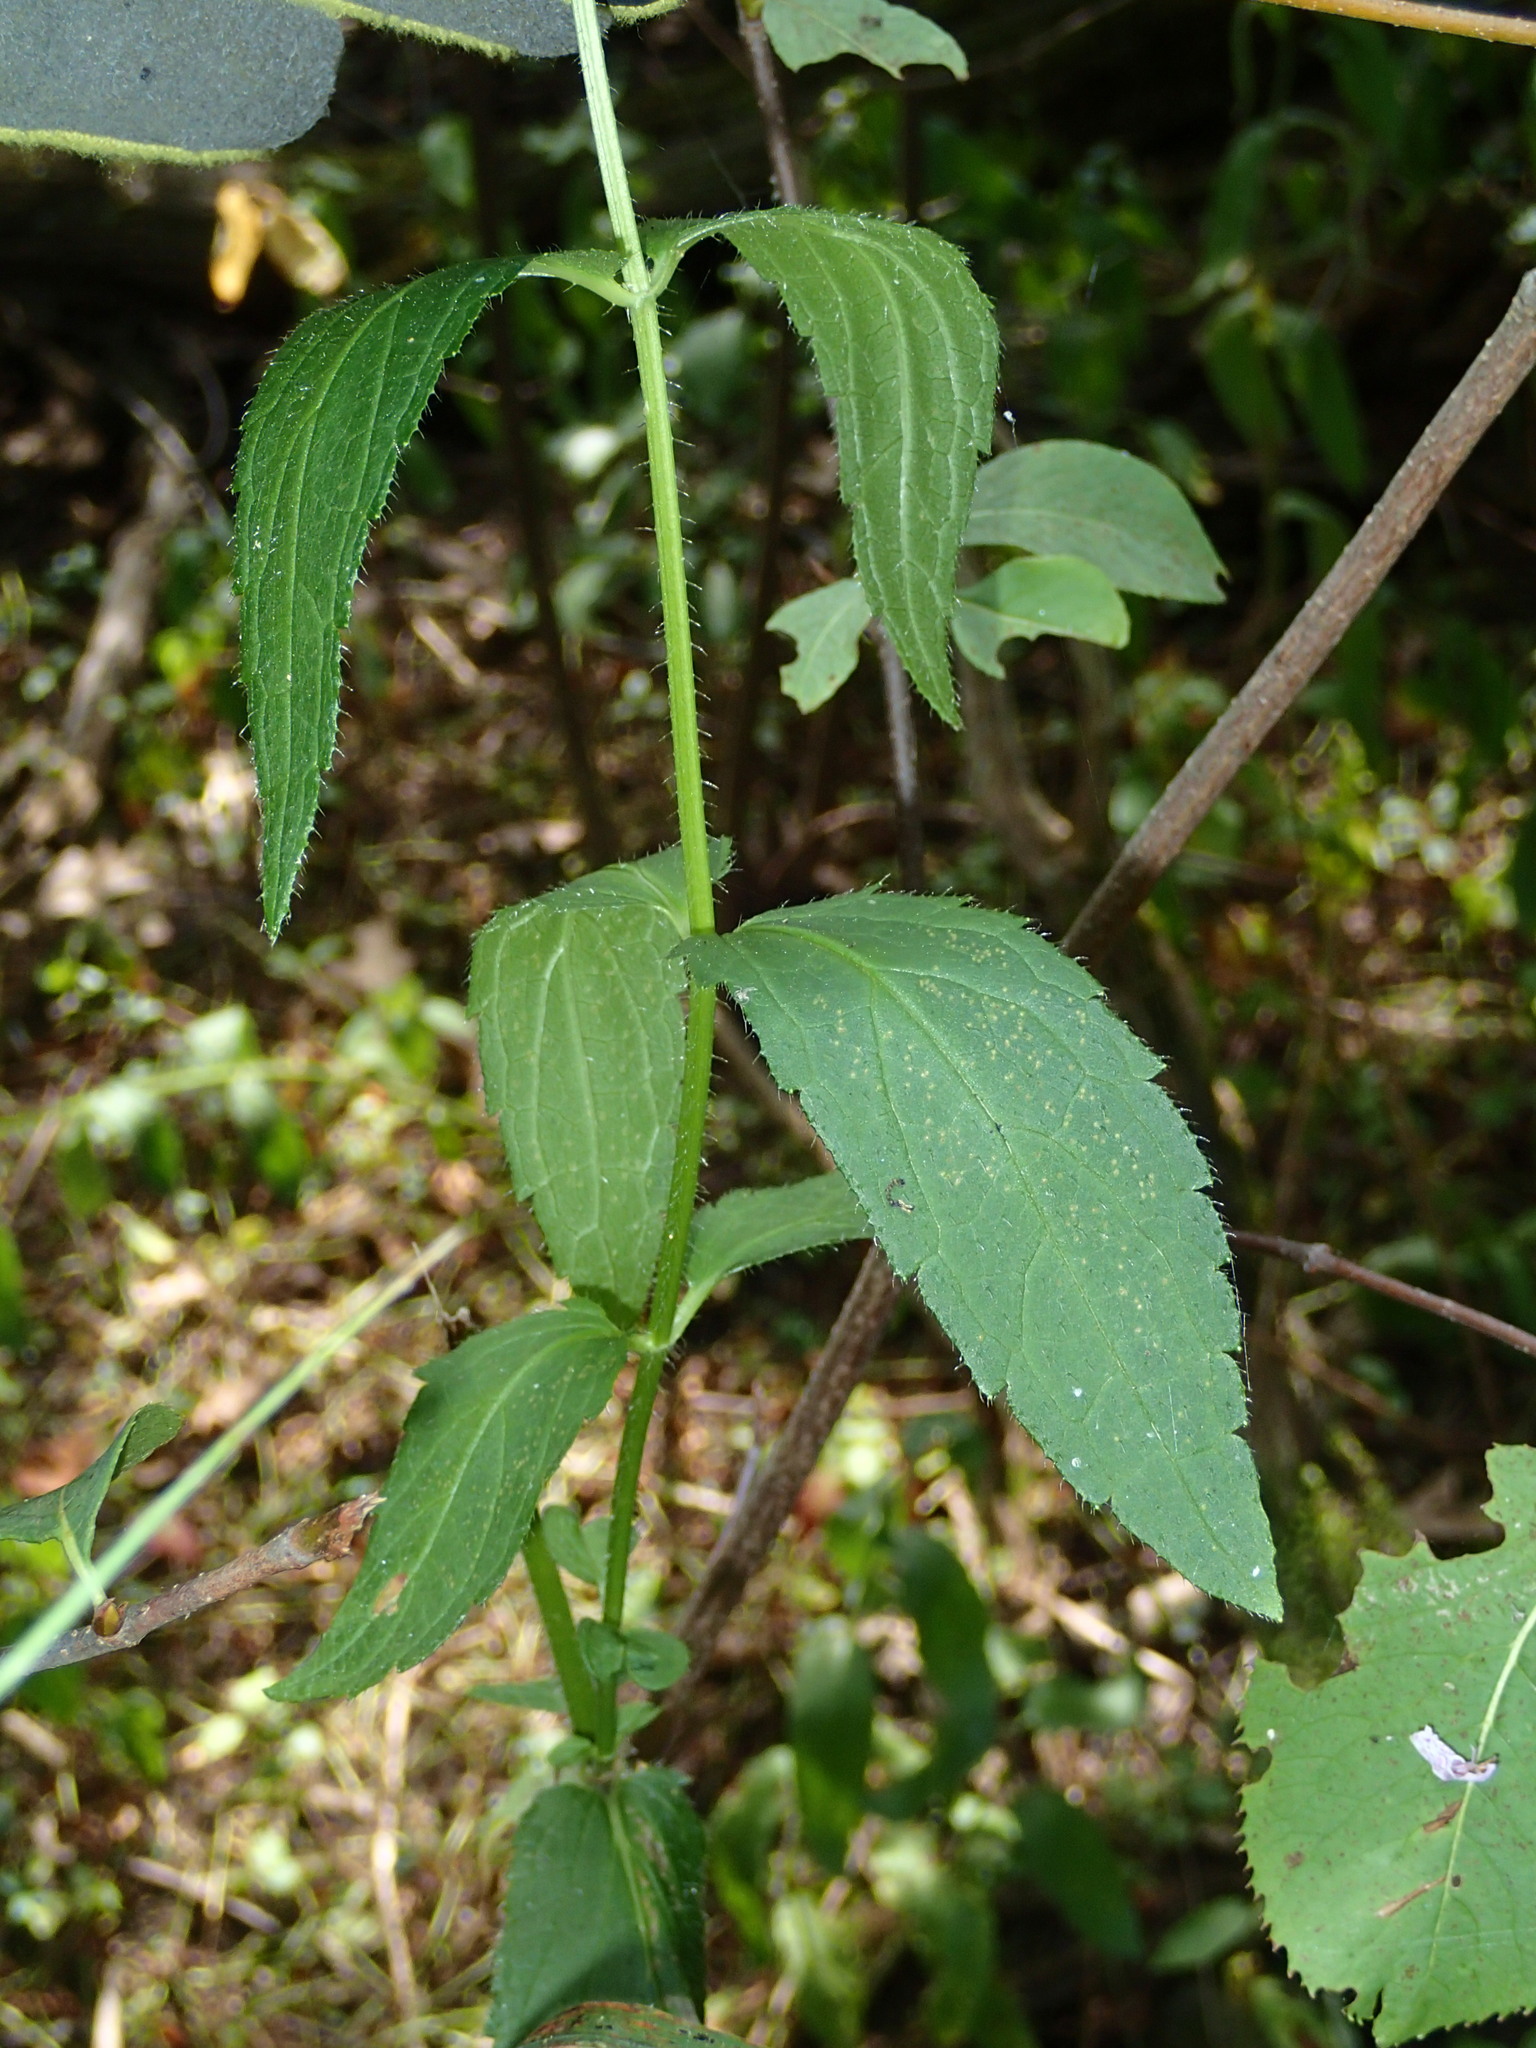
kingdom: Plantae
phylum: Tracheophyta
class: Magnoliopsida
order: Lamiales
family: Lamiaceae
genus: Stachys
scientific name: Stachys hispida
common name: Hispid hedge-nettle
